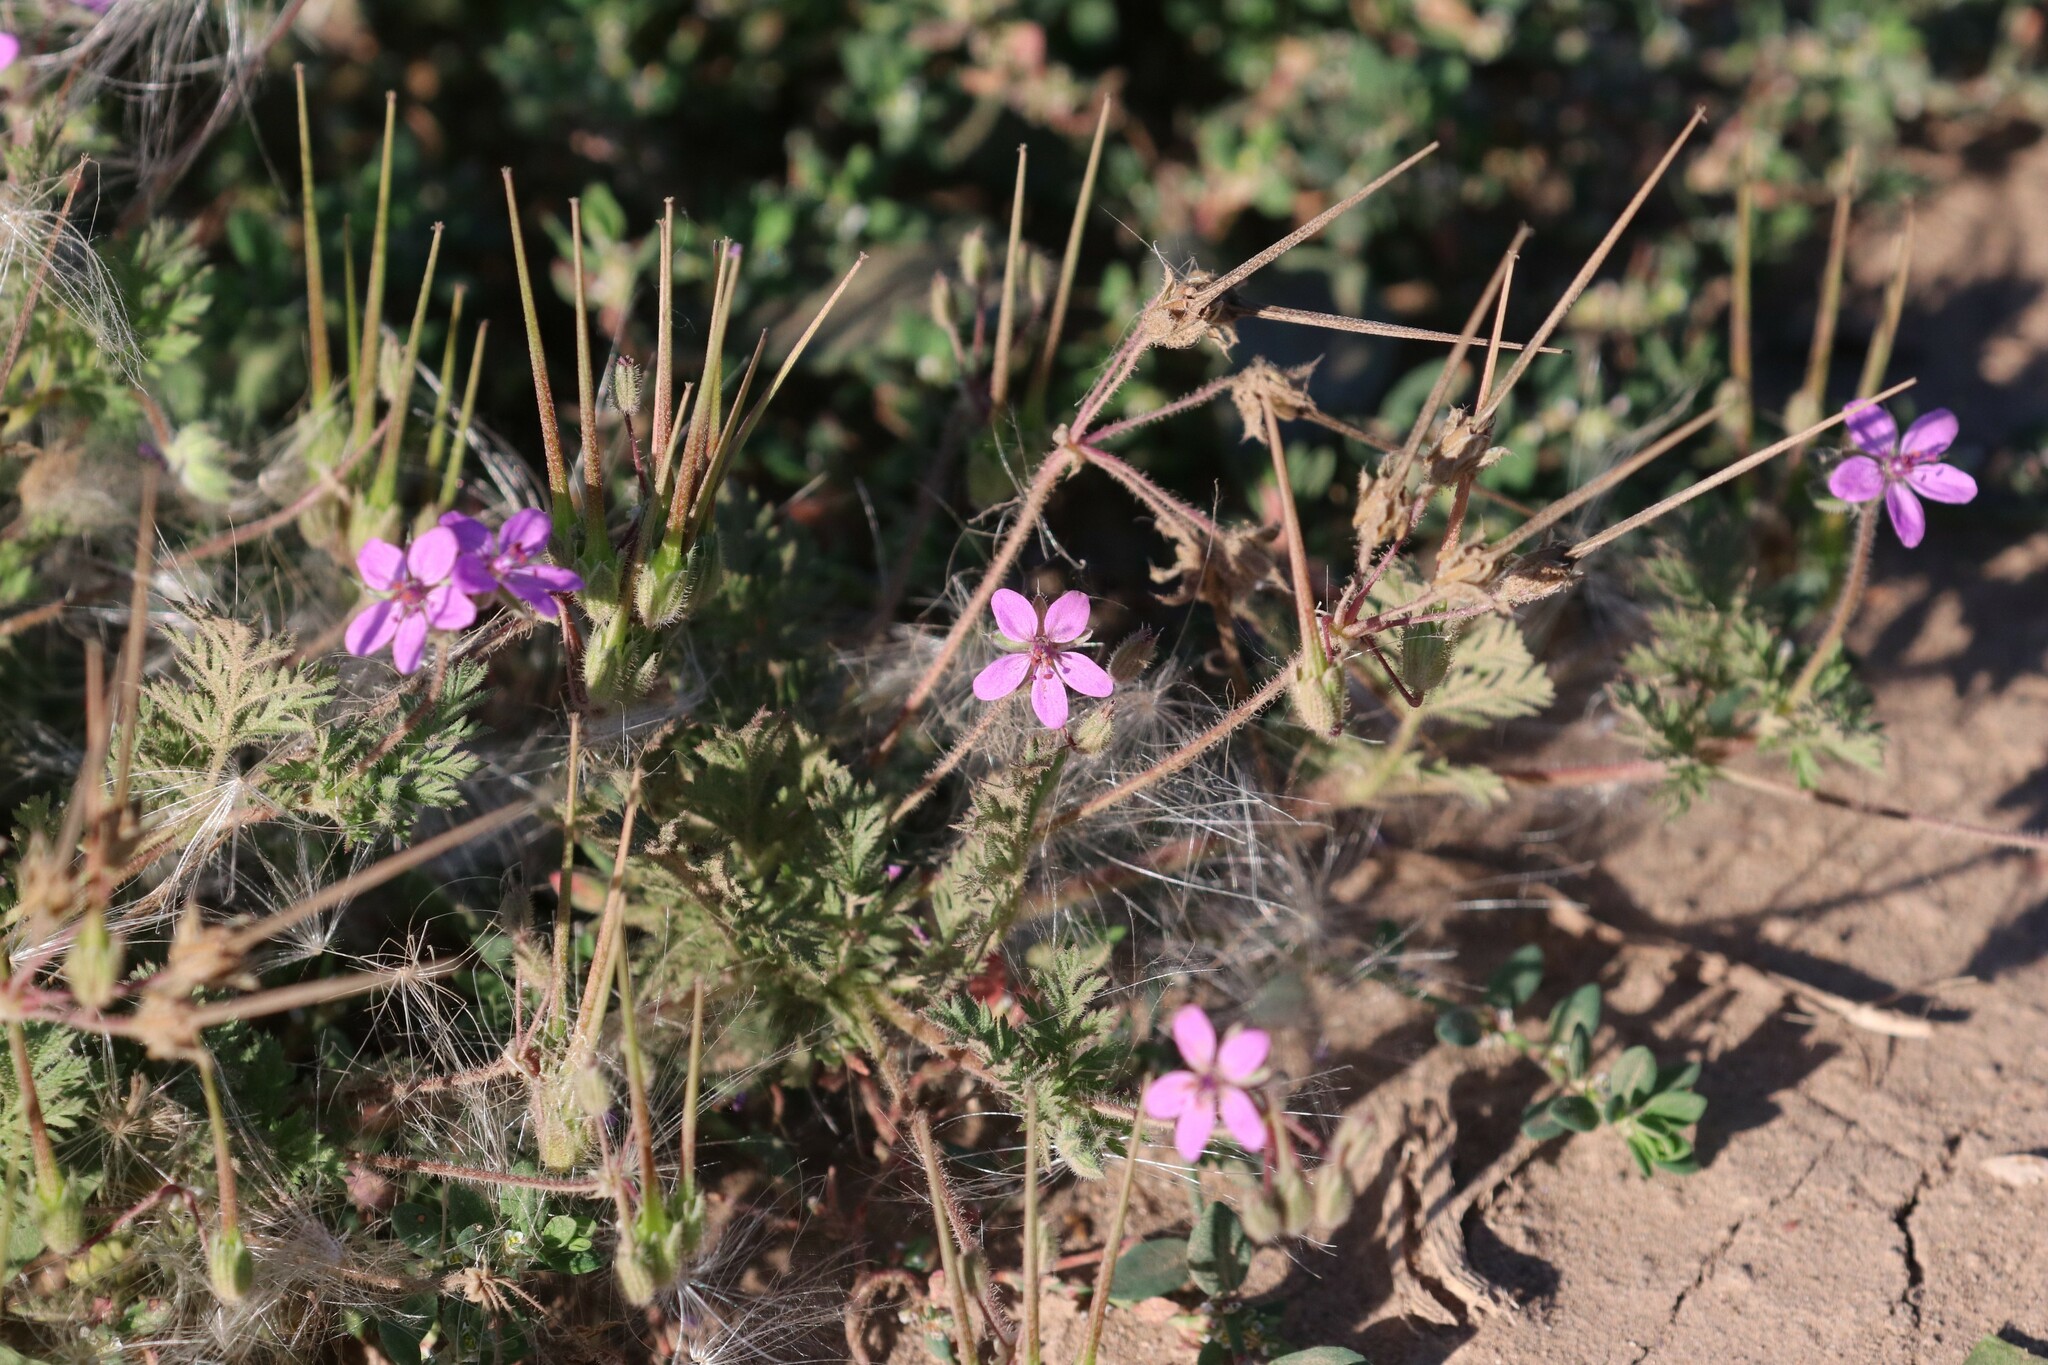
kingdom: Plantae
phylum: Tracheophyta
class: Magnoliopsida
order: Geraniales
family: Geraniaceae
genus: Erodium
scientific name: Erodium cicutarium
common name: Common stork's-bill
